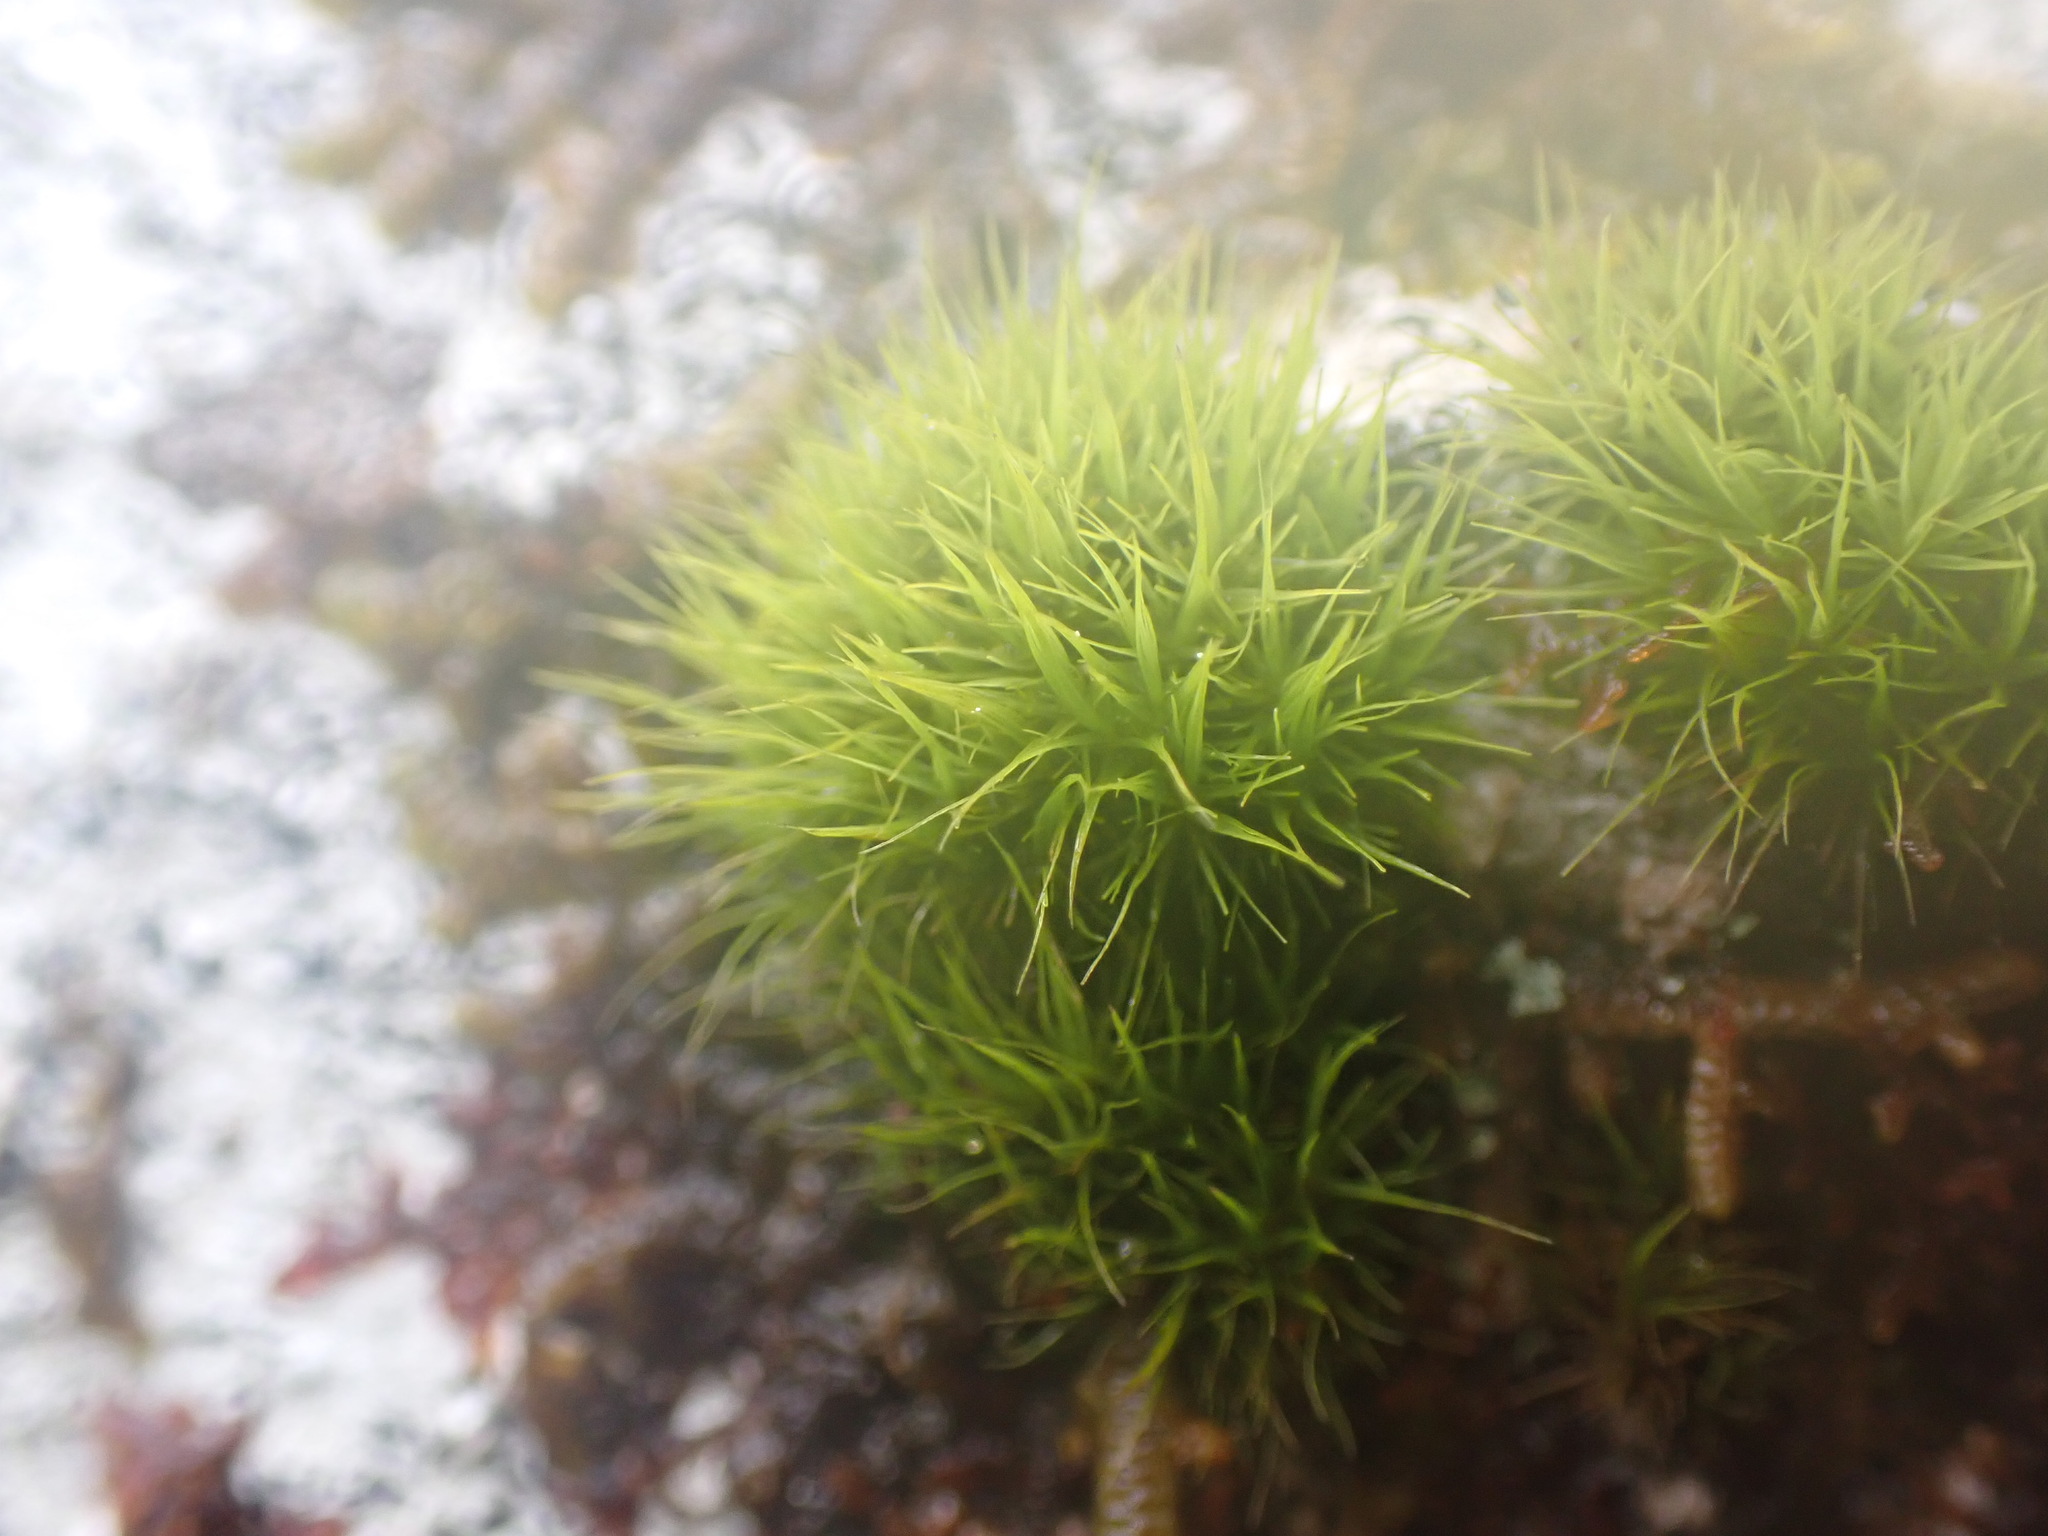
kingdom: Plantae
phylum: Bryophyta
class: Bryopsida
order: Dicranales
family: Dicranaceae
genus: Orthodicranum
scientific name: Orthodicranum tauricum
